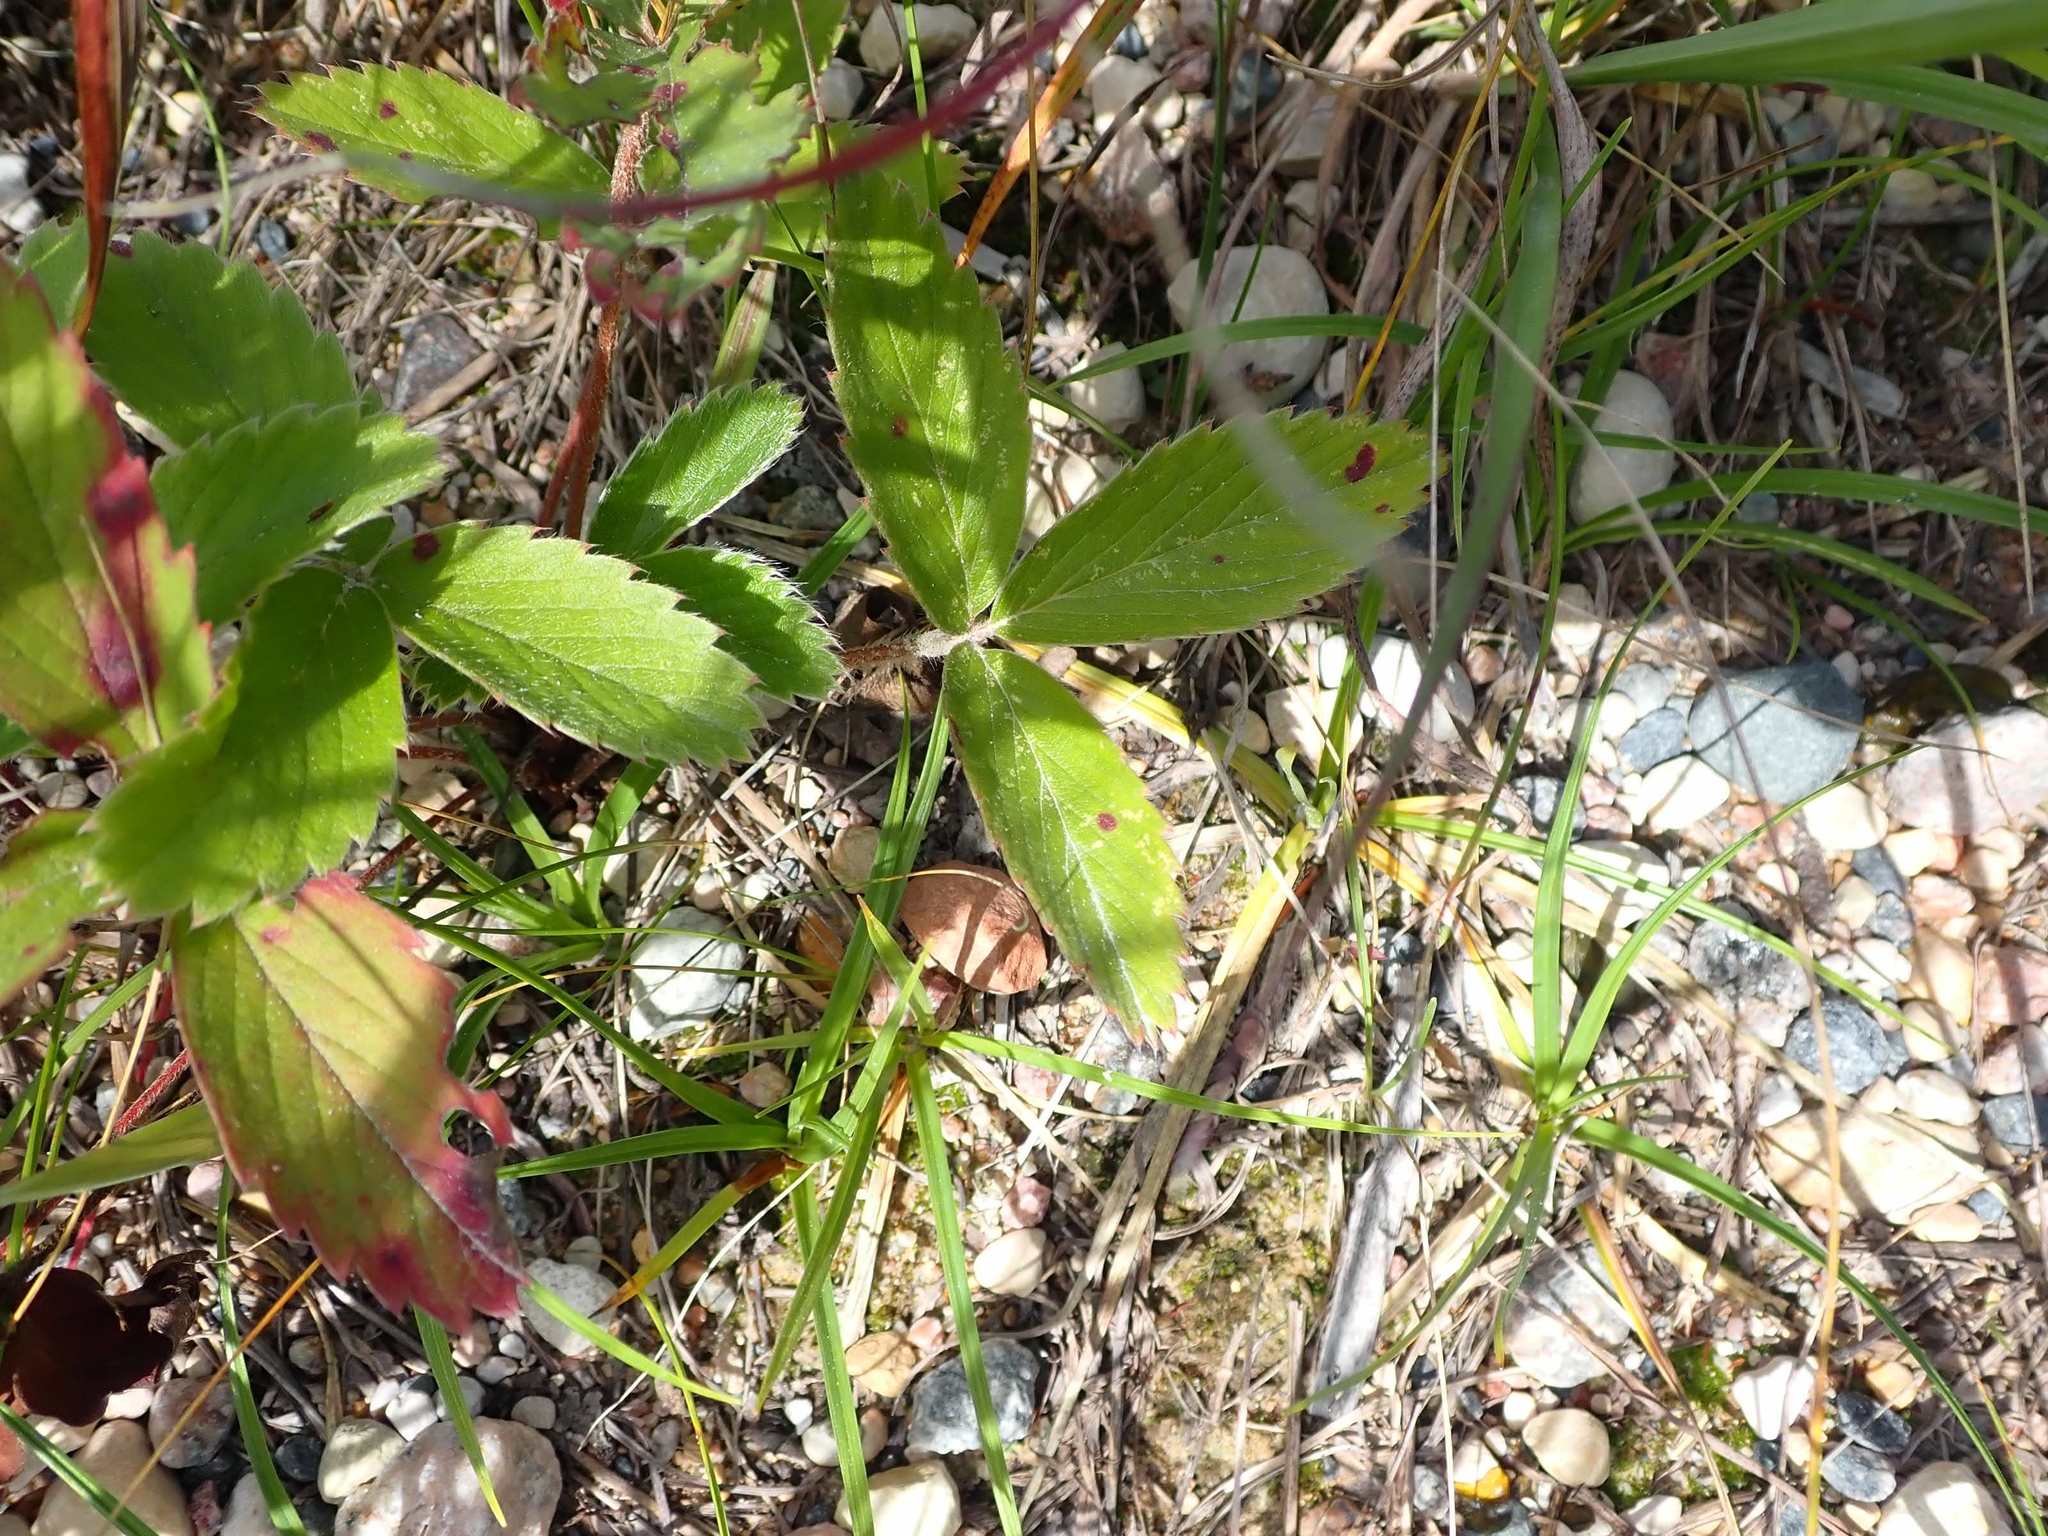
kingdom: Plantae
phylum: Tracheophyta
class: Magnoliopsida
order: Rosales
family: Rosaceae
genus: Fragaria
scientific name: Fragaria virginiana
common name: Thickleaved wild strawberry
